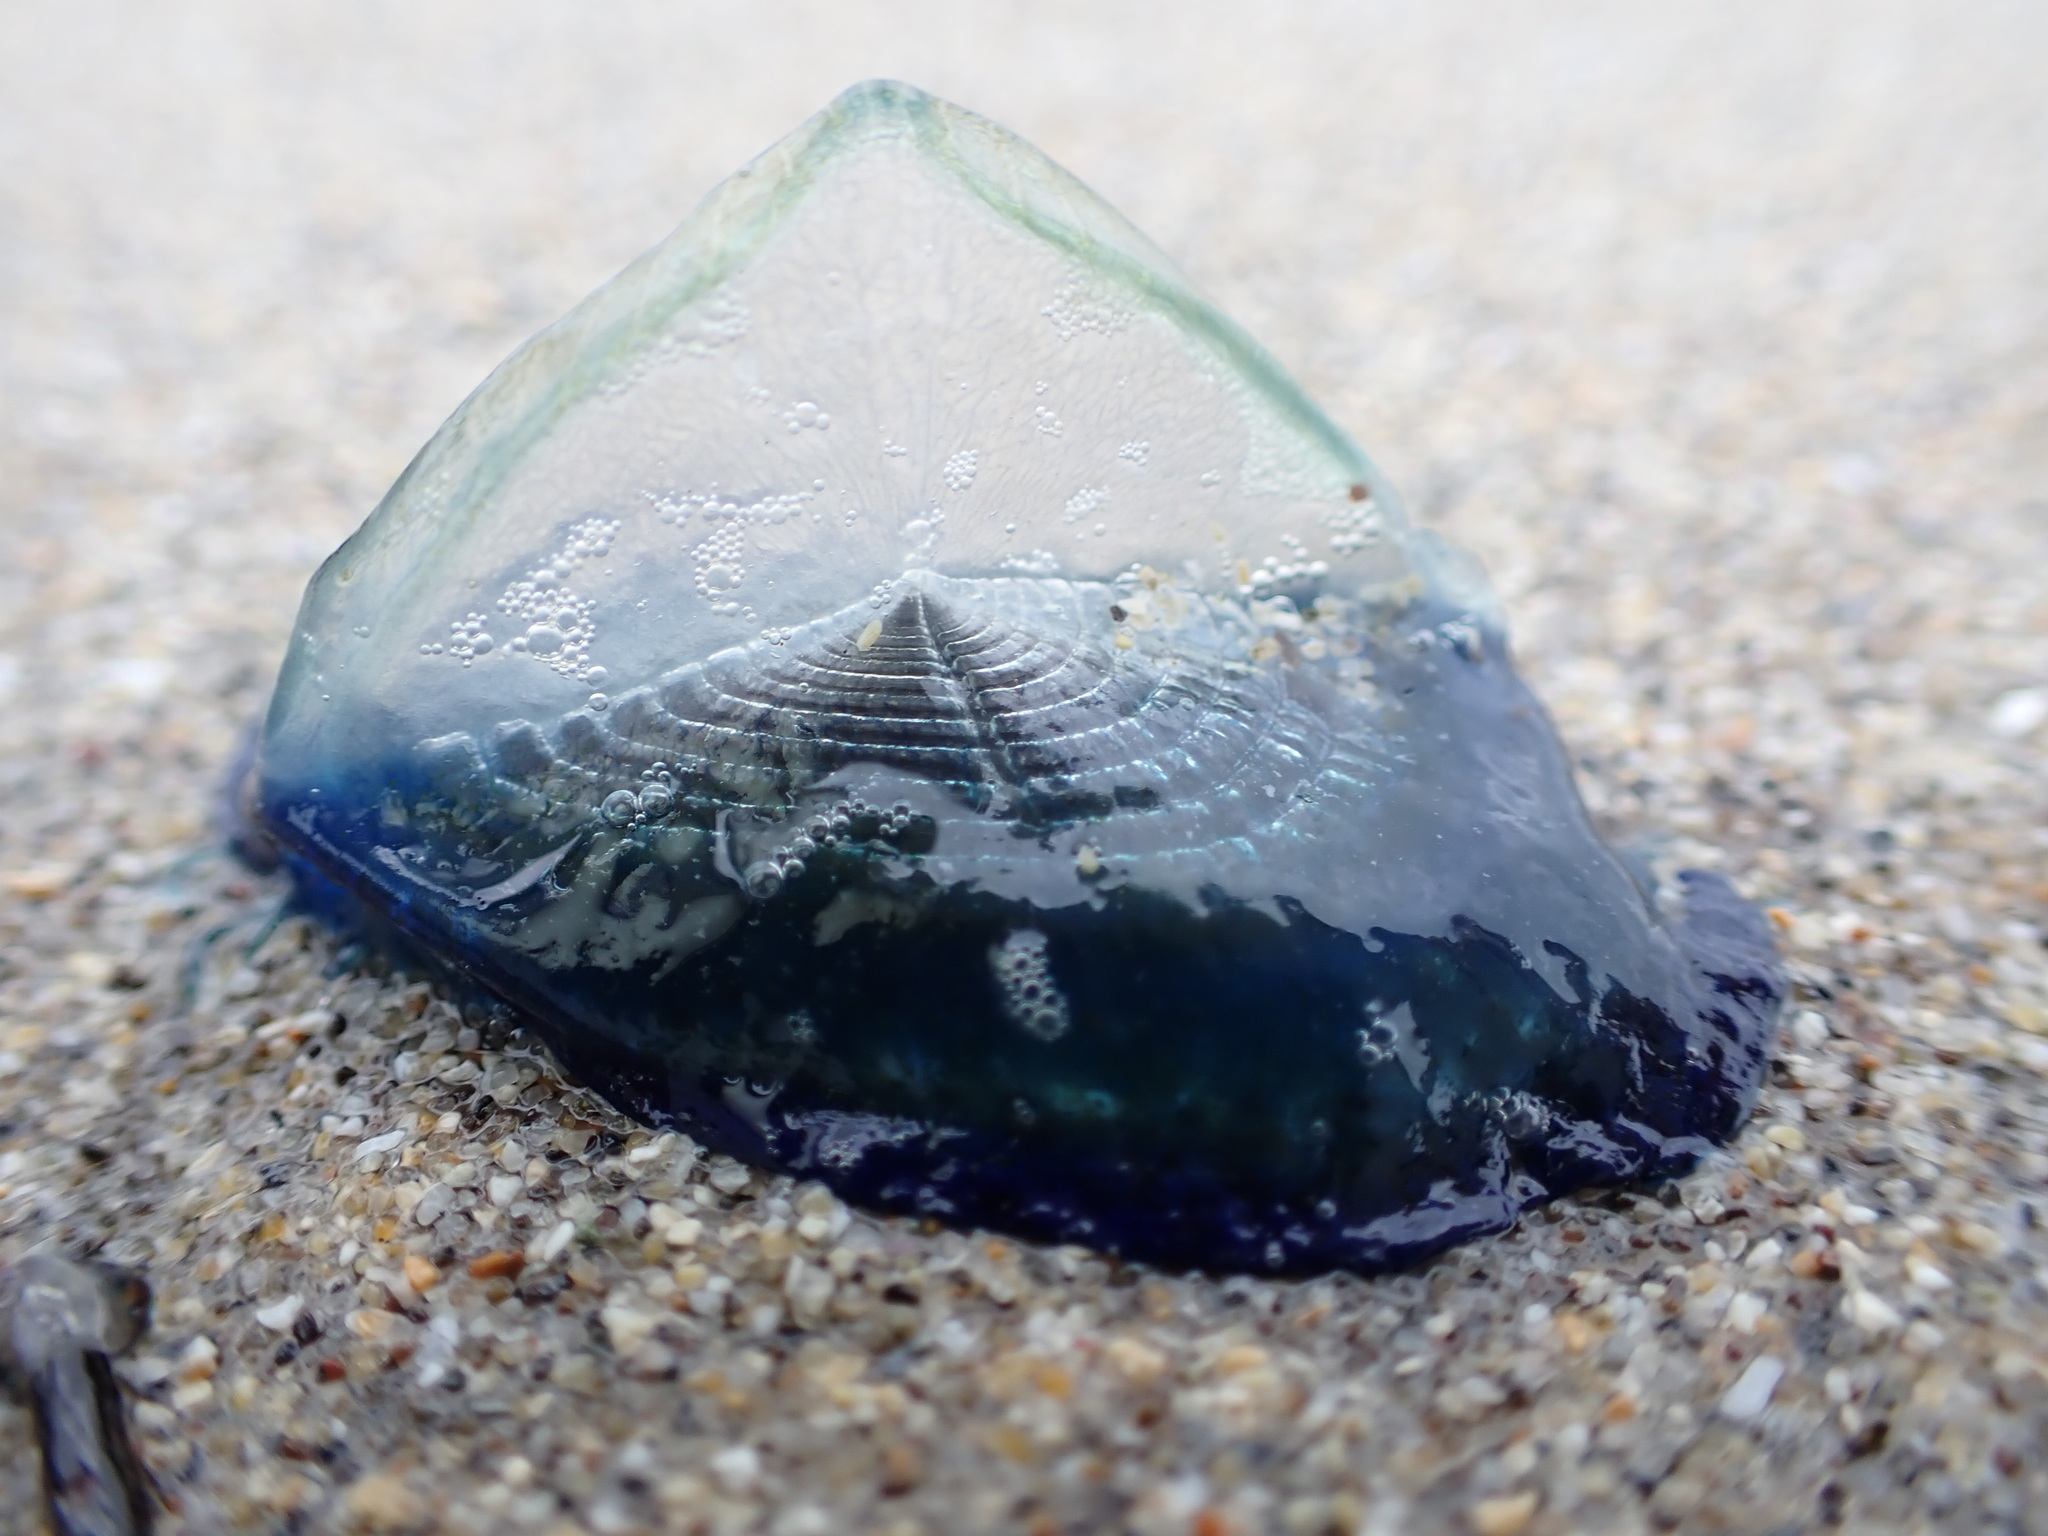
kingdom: Animalia
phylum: Cnidaria
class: Hydrozoa
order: Anthoathecata
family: Porpitidae
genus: Velella
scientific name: Velella velella
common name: By-the-wind-sailor
